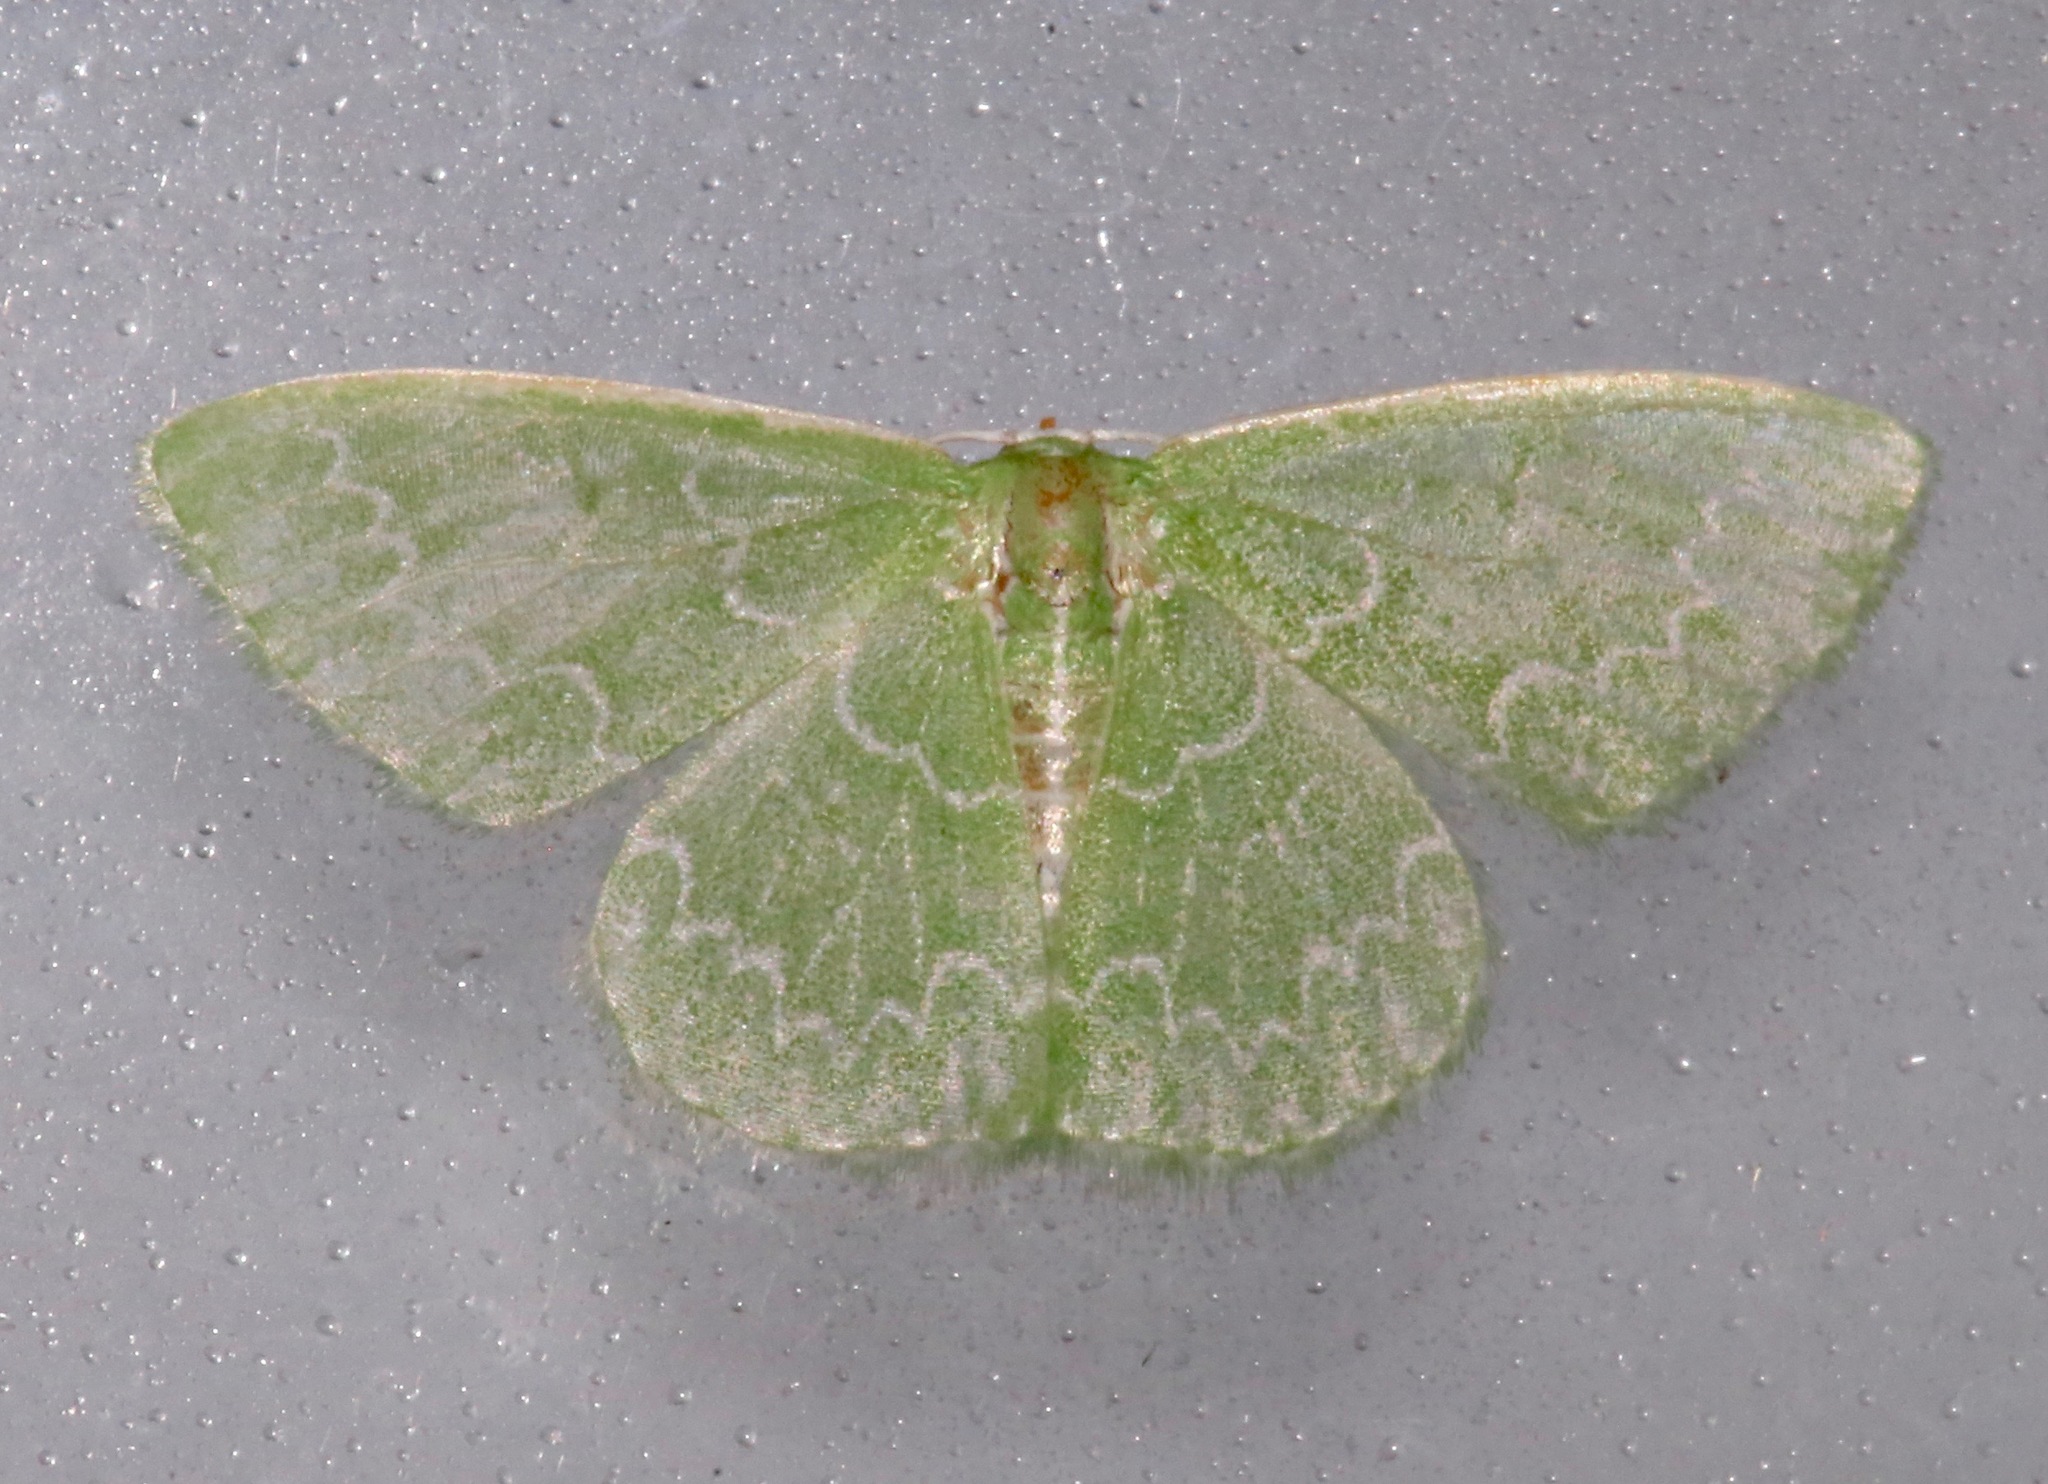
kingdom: Animalia
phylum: Arthropoda
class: Insecta
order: Lepidoptera
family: Geometridae
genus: Synchlora
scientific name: Synchlora frondaria
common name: Southern emerald
